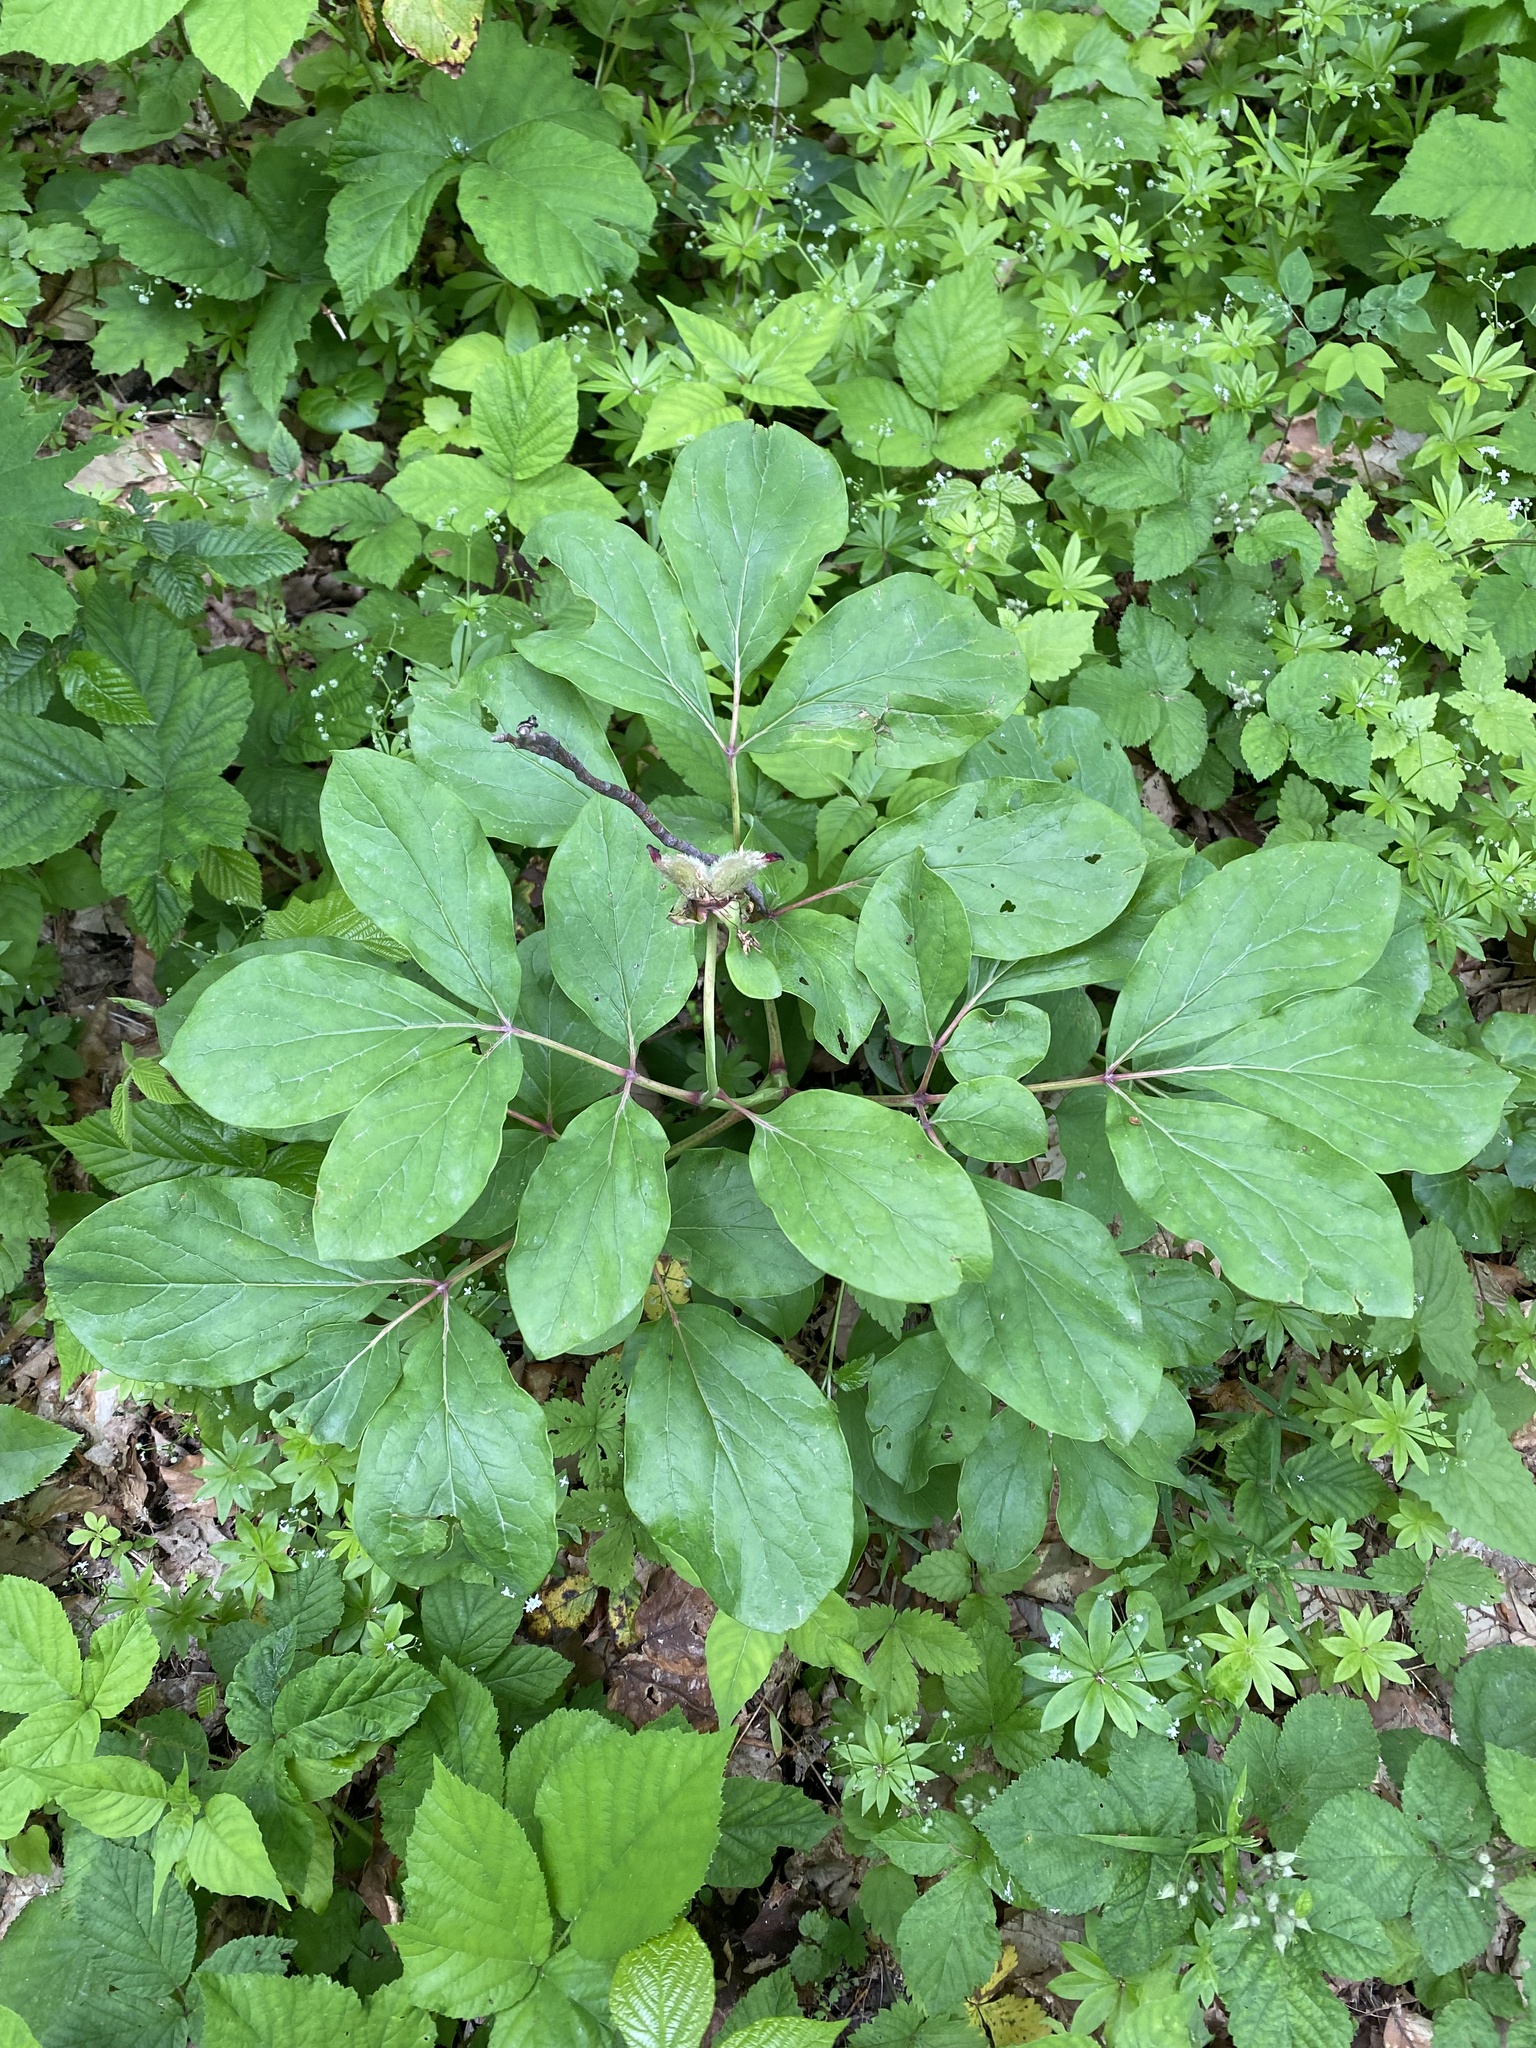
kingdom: Plantae
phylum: Tracheophyta
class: Magnoliopsida
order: Saxifragales
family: Paeoniaceae
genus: Paeonia
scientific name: Paeonia caucasica
